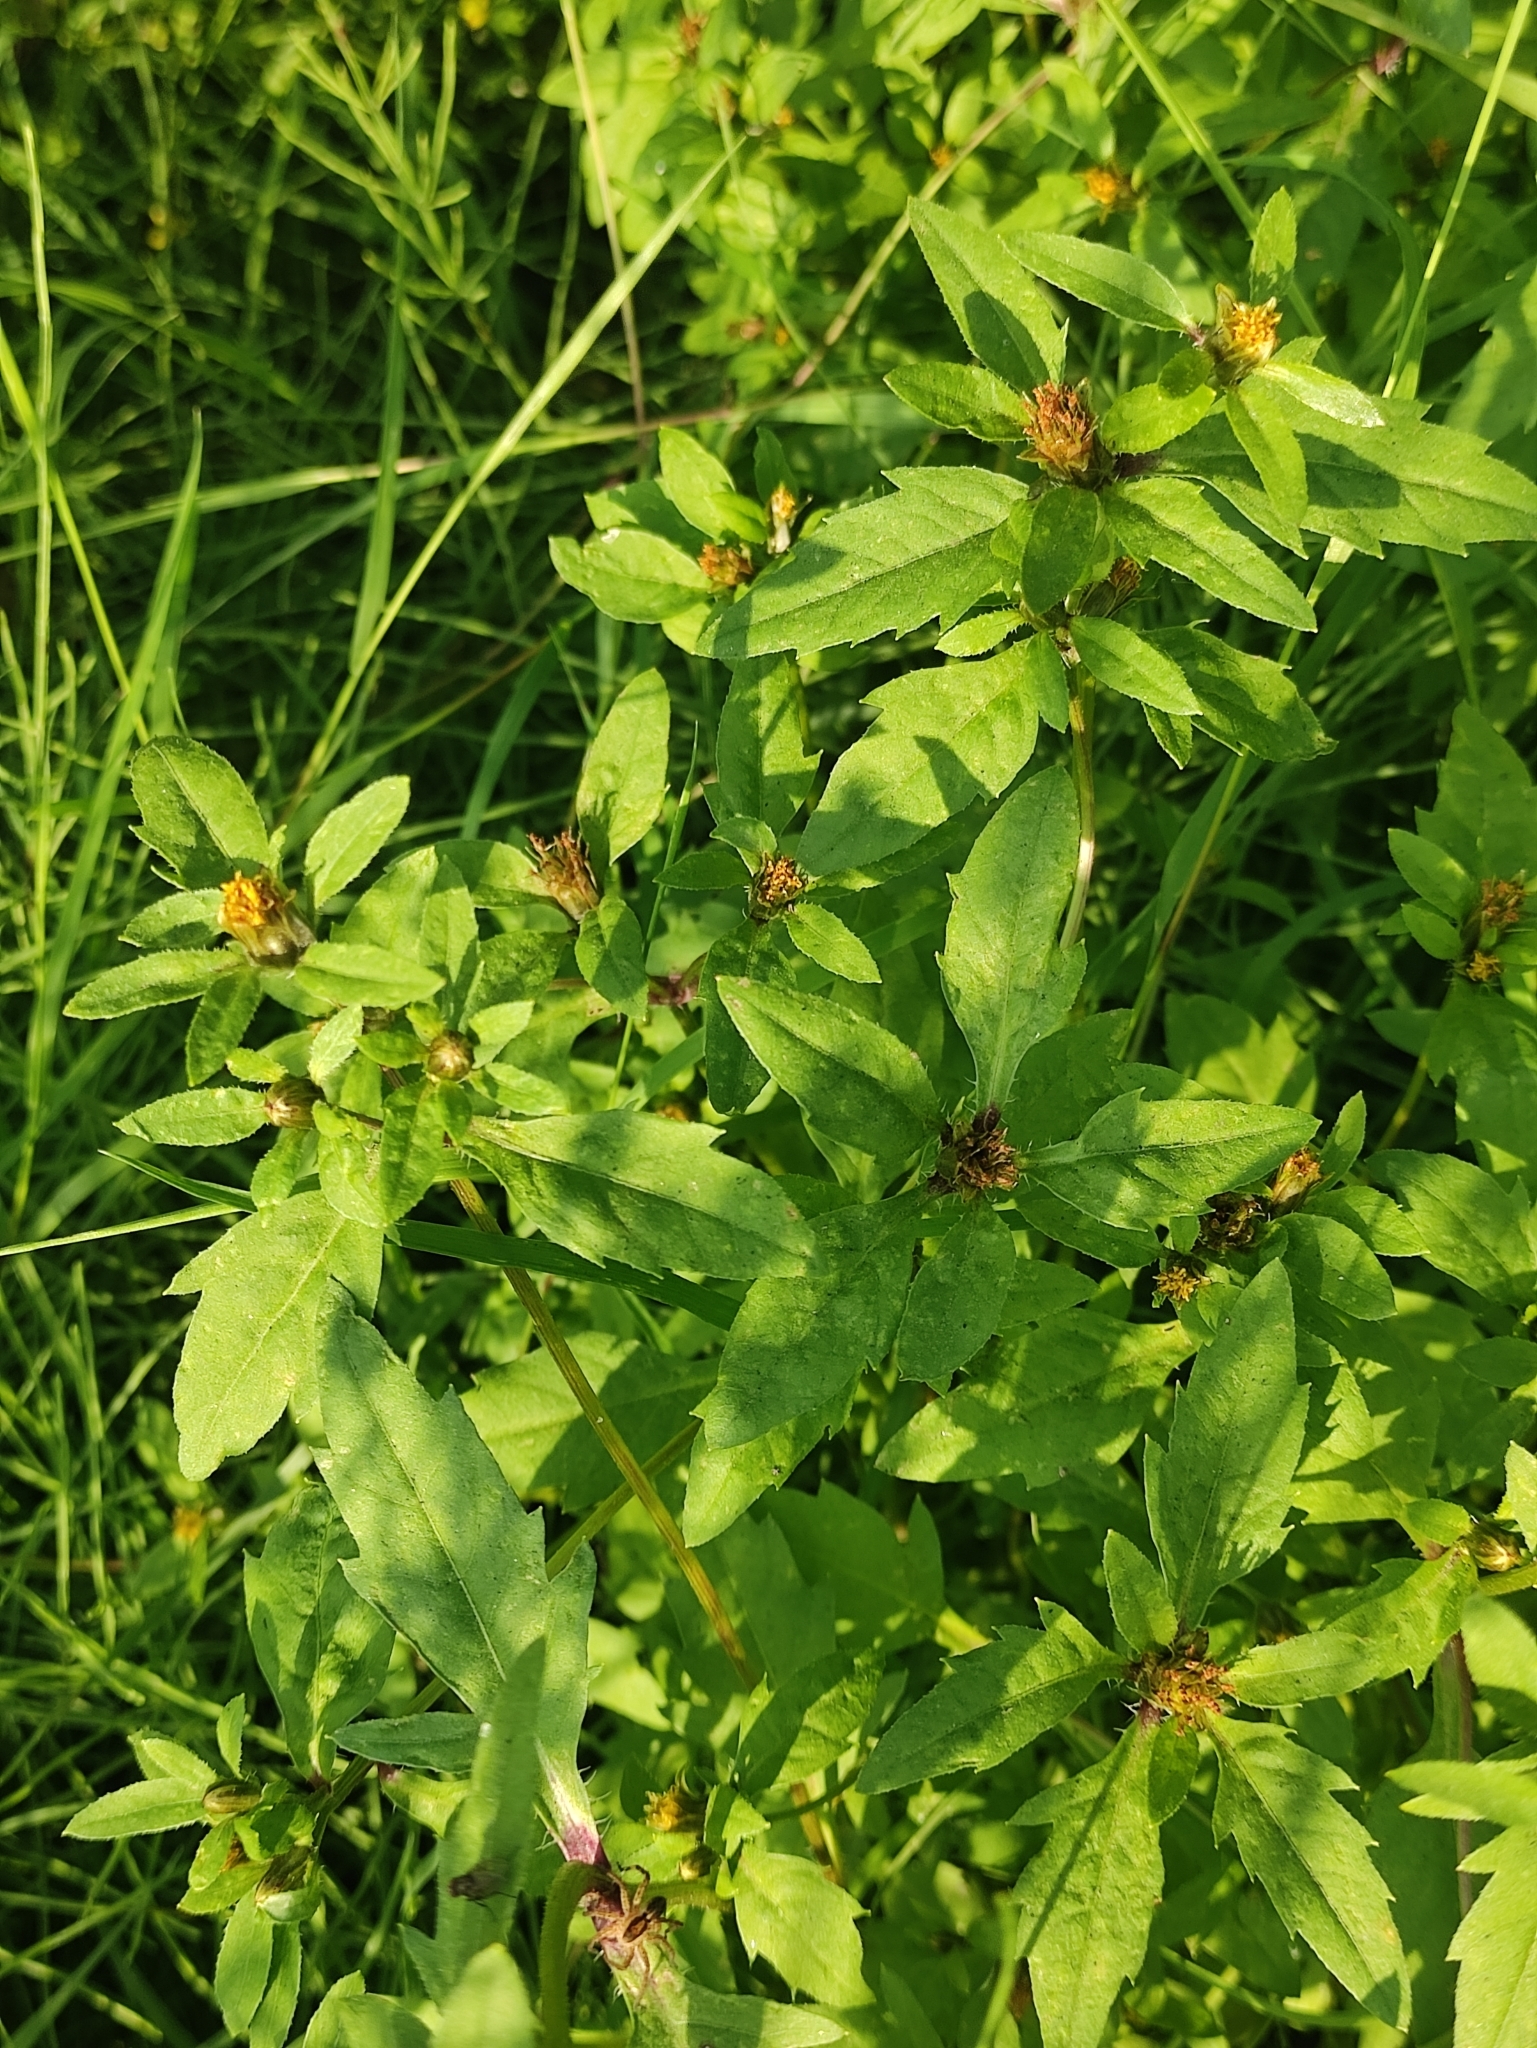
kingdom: Plantae
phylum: Tracheophyta
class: Magnoliopsida
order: Asterales
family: Asteraceae
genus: Bidens
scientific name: Bidens tripartita
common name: Trifid bur-marigold
